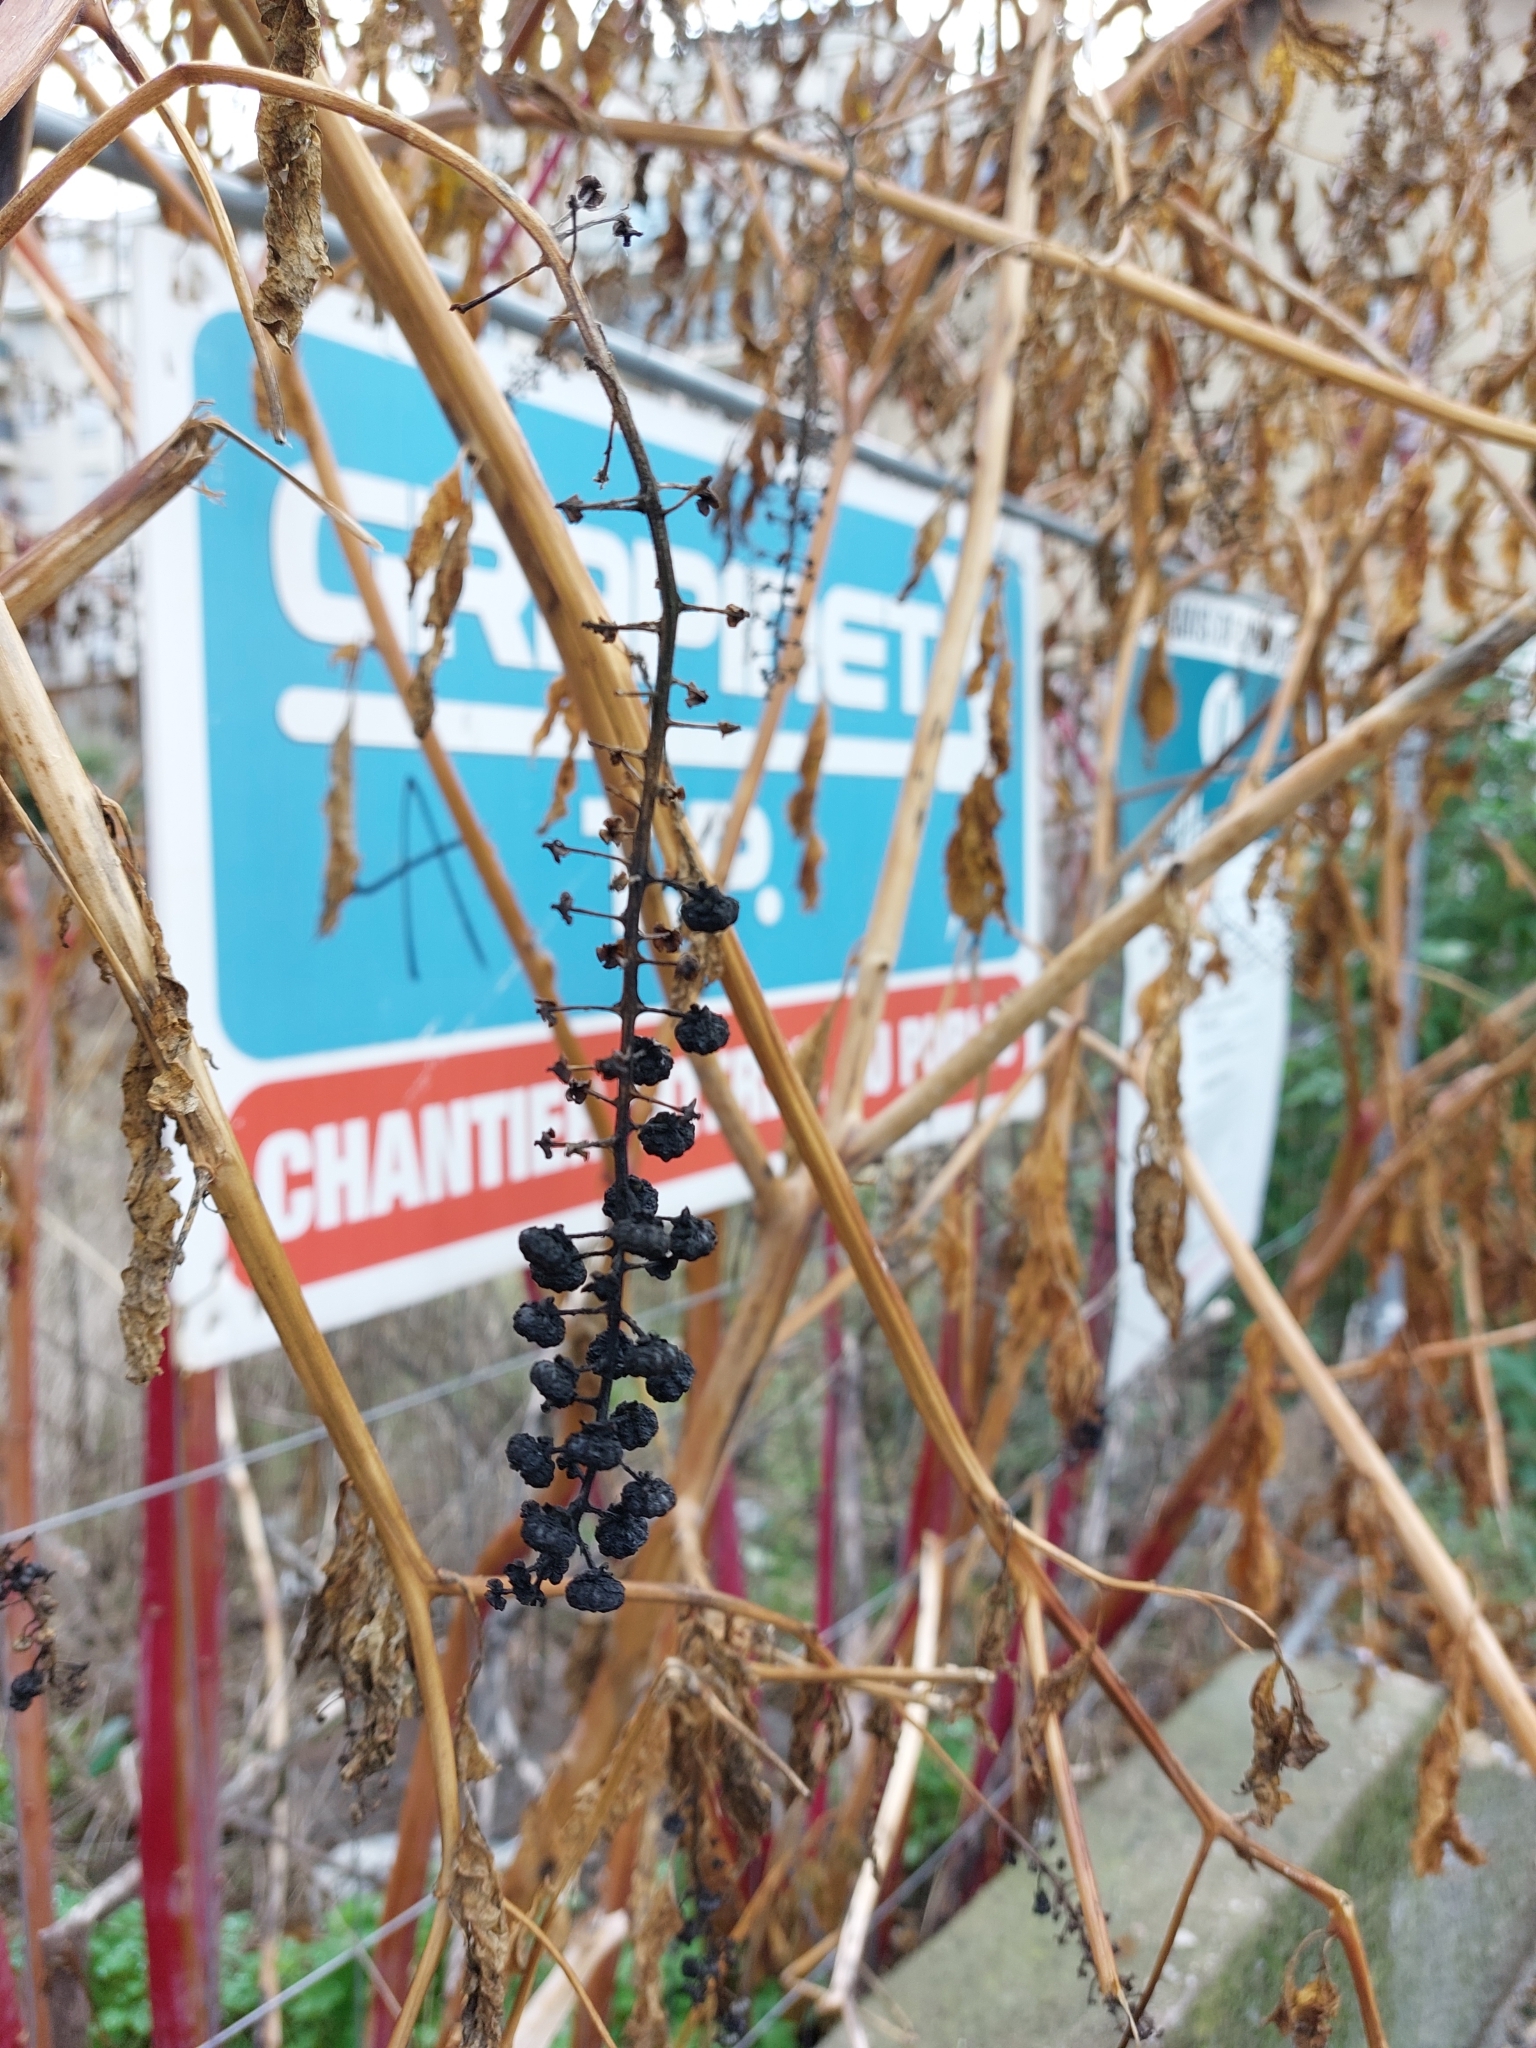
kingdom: Plantae
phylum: Tracheophyta
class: Magnoliopsida
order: Caryophyllales
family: Phytolaccaceae
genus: Phytolacca
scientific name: Phytolacca americana
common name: American pokeweed
